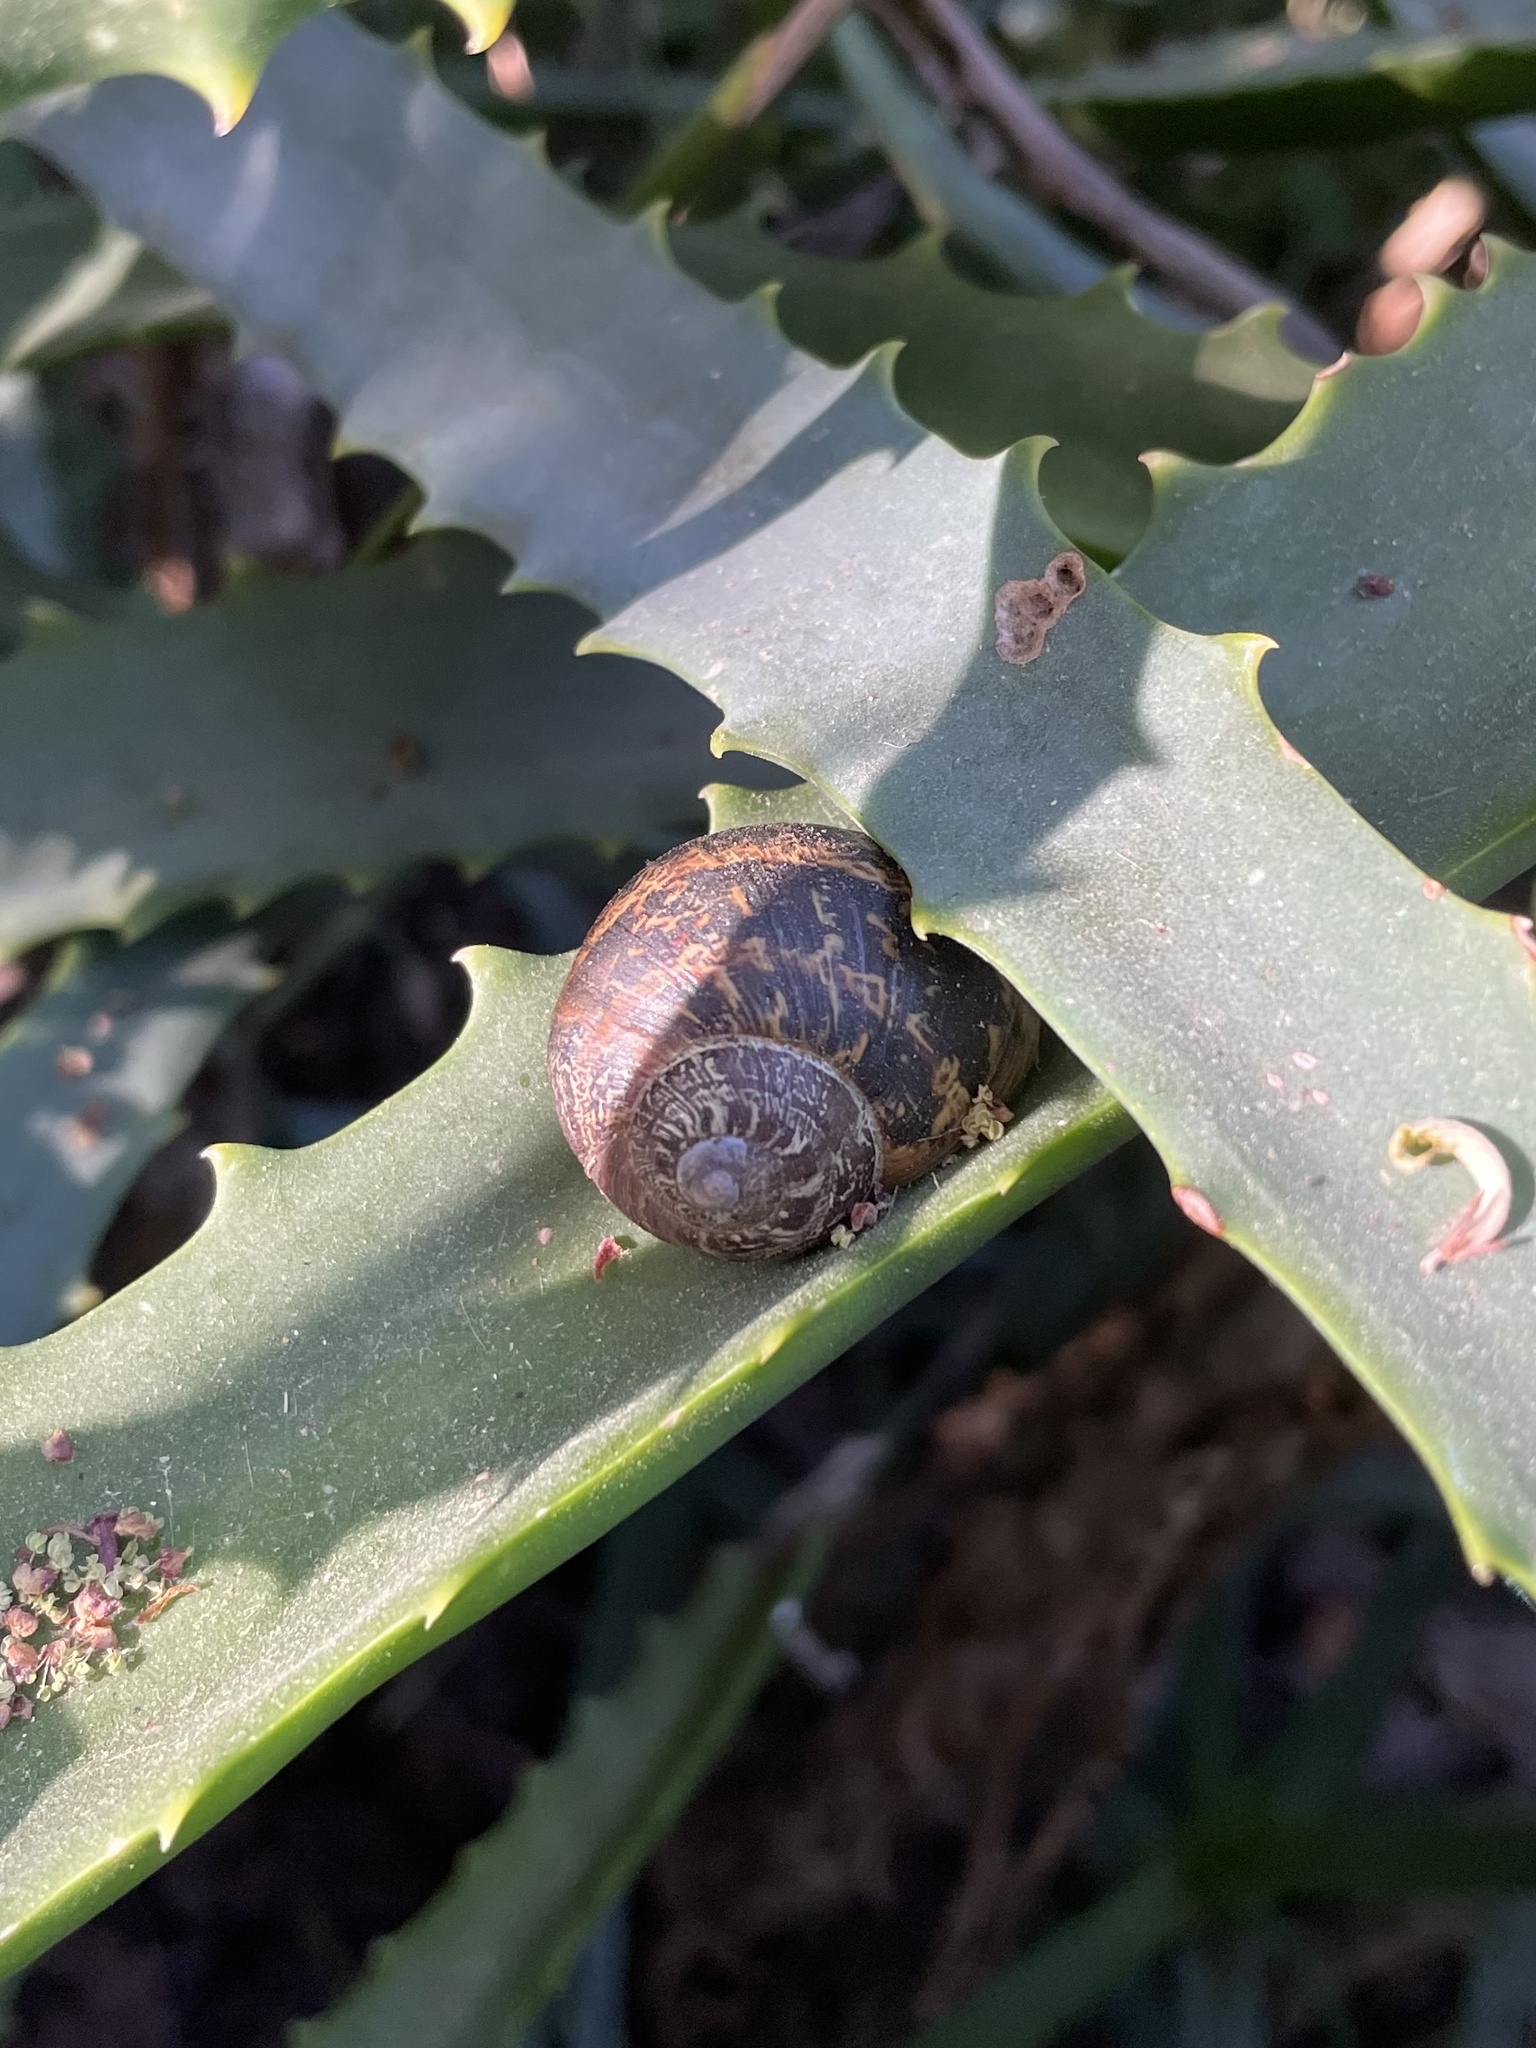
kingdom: Animalia
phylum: Mollusca
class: Gastropoda
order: Stylommatophora
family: Helicidae
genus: Cornu
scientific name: Cornu aspersum
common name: Brown garden snail
